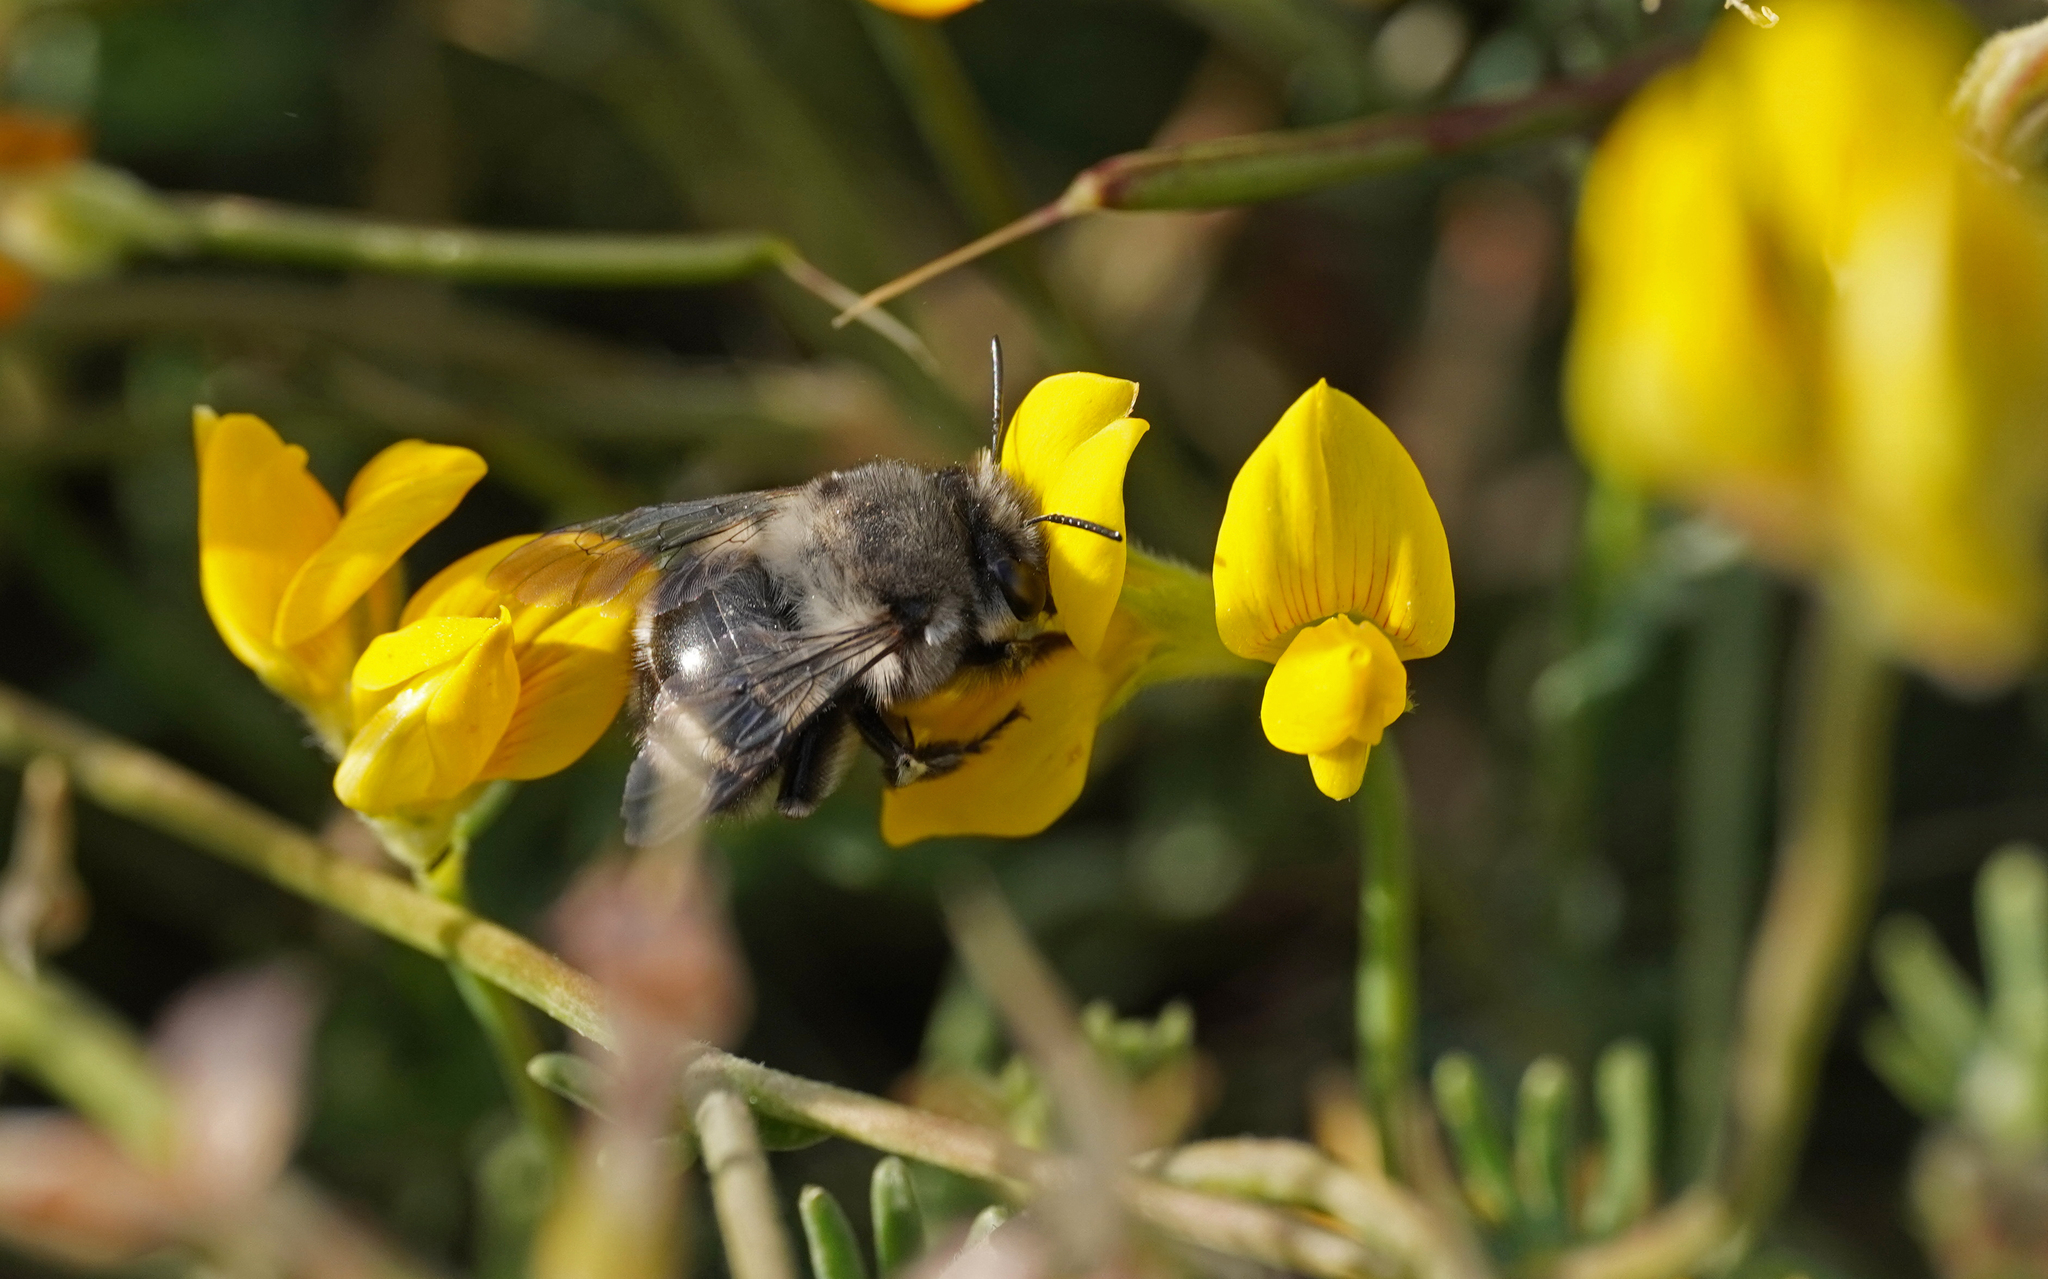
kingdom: Animalia
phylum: Arthropoda
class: Insecta
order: Hymenoptera
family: Apidae
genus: Anthophora
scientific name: Anthophora alluaudi
